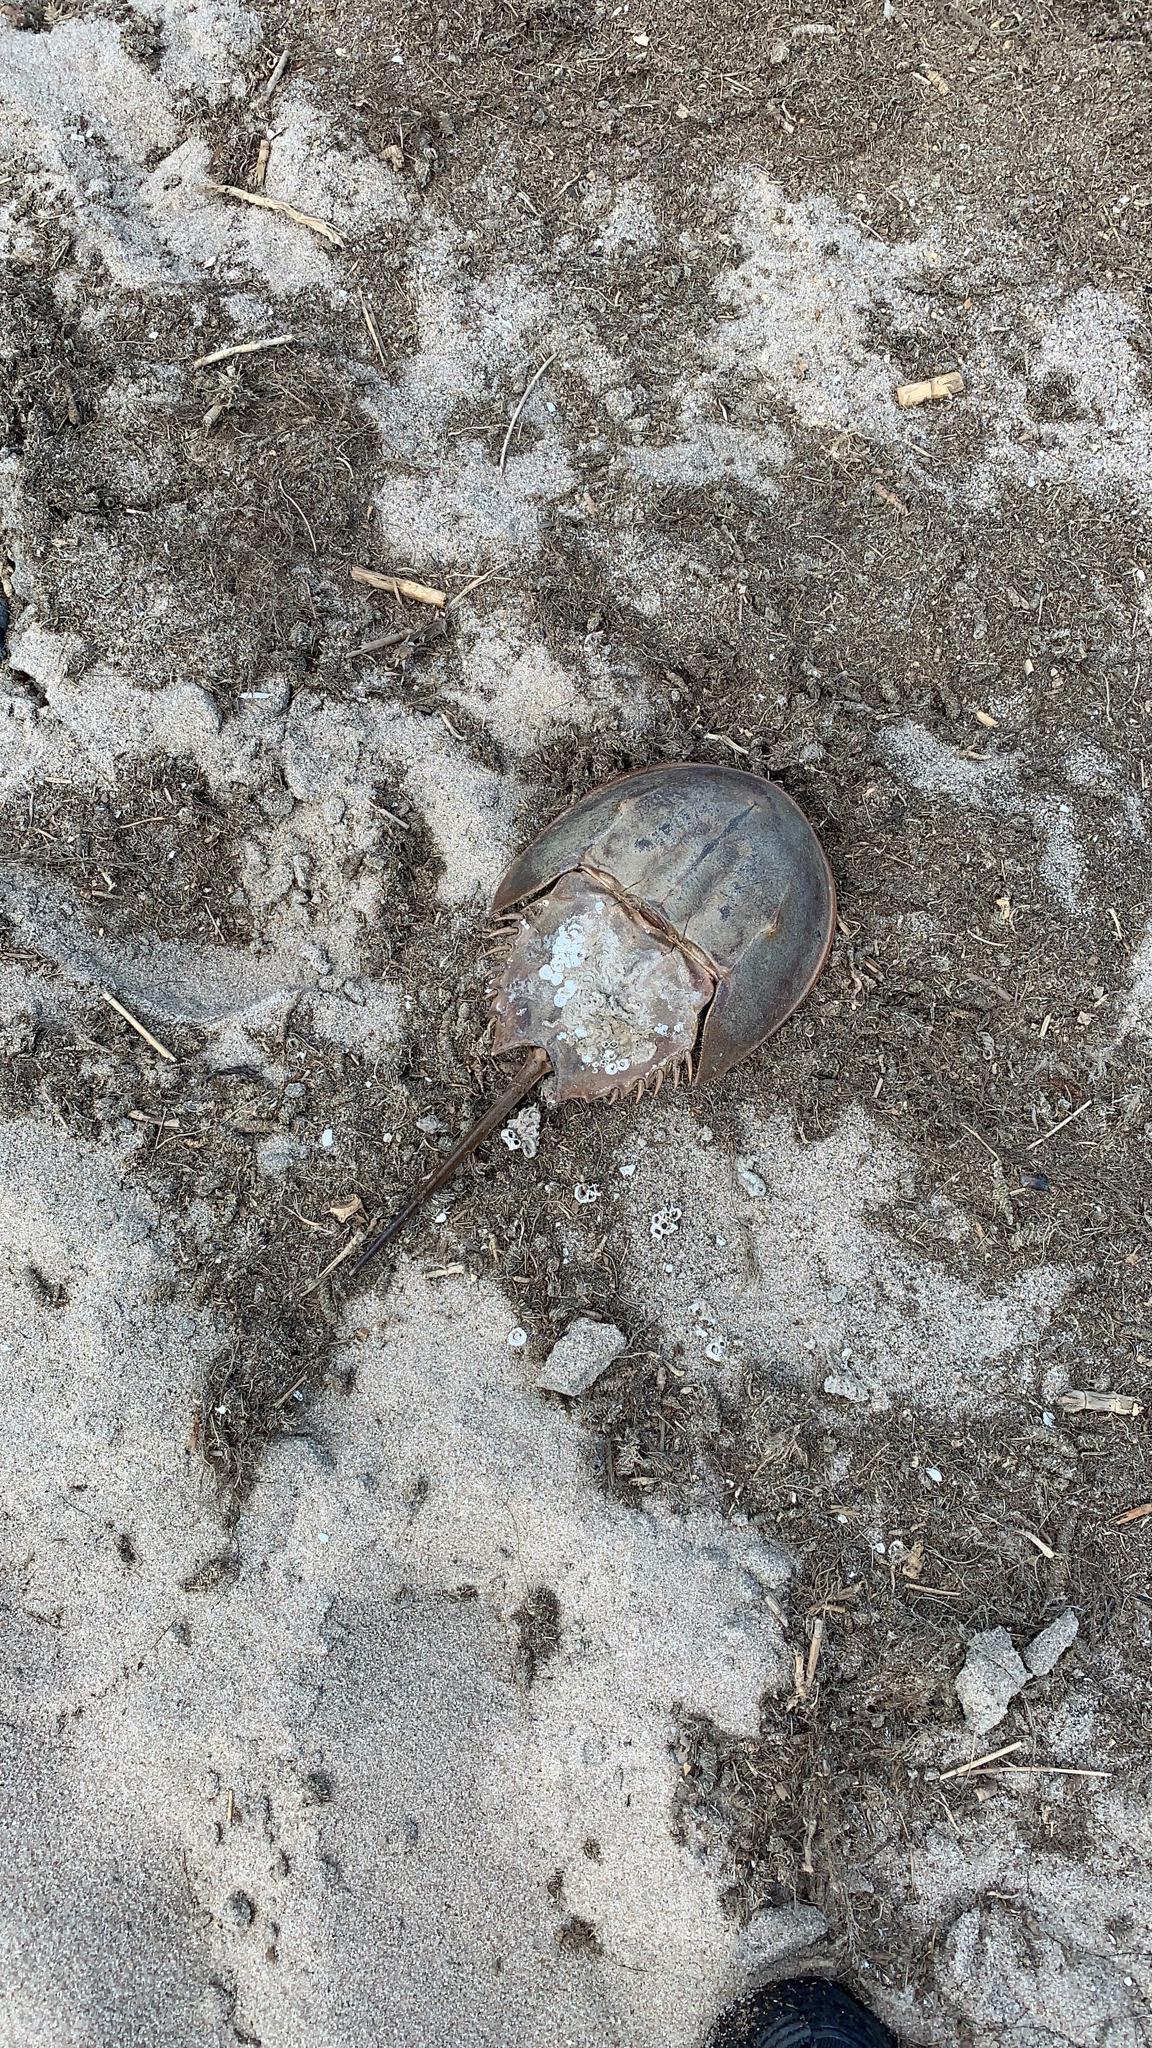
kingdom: Animalia
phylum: Arthropoda
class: Merostomata
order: Xiphosurida
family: Limulidae
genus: Limulus
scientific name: Limulus polyphemus
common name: Horseshoe crab
